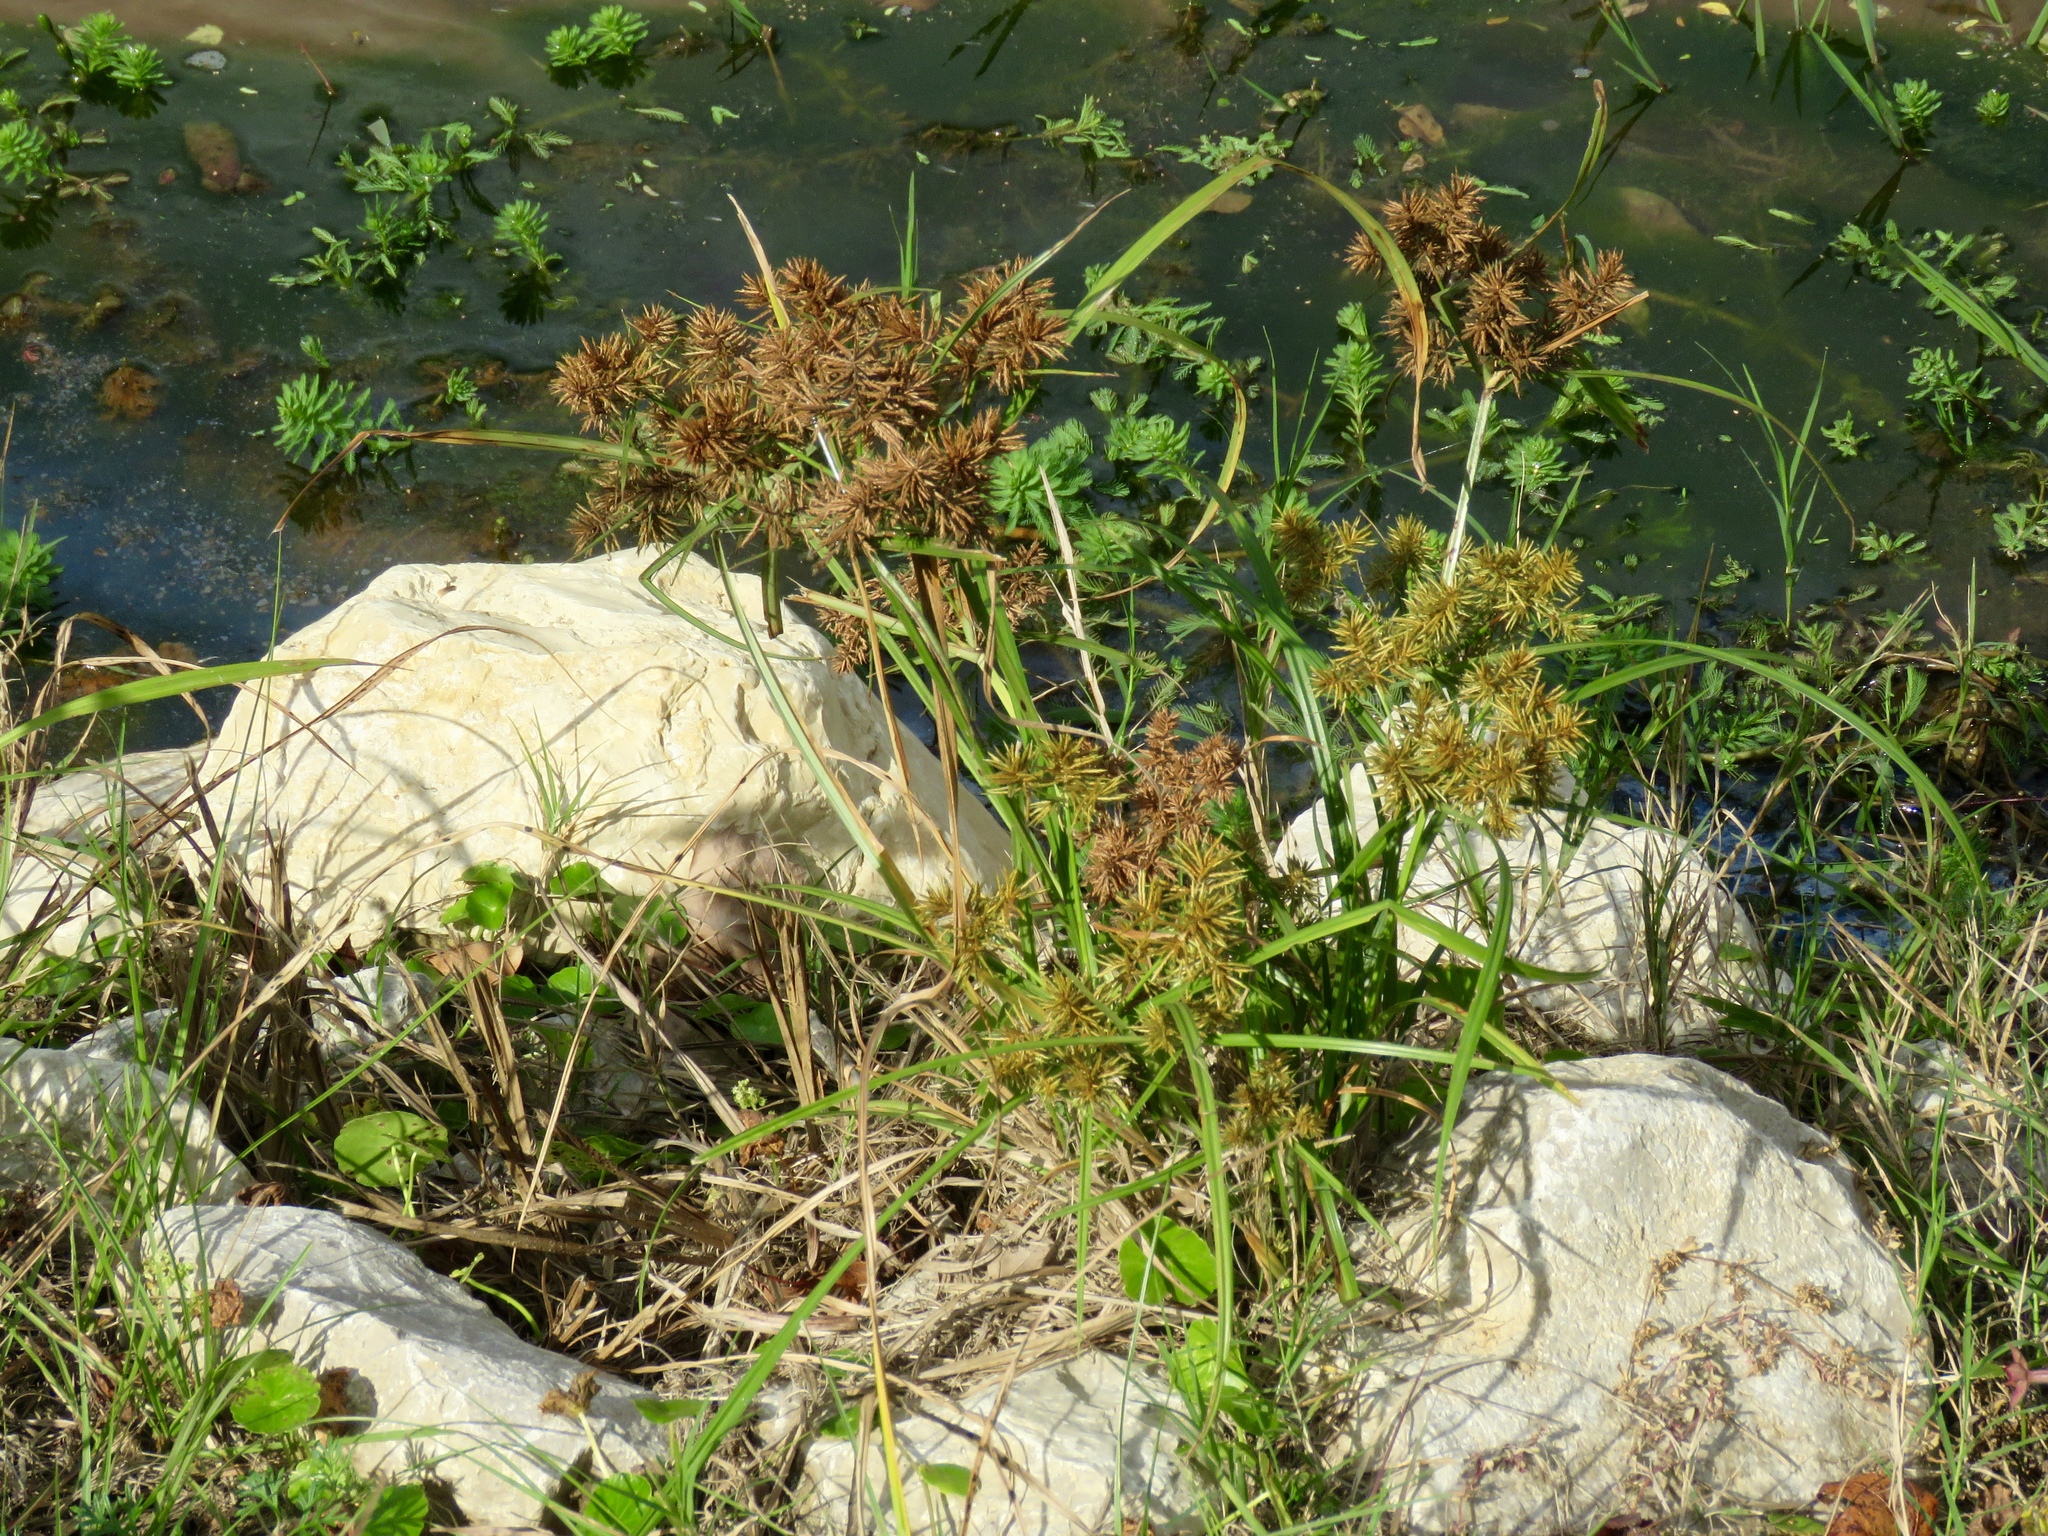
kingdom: Plantae
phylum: Tracheophyta
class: Liliopsida
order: Poales
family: Cyperaceae
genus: Cyperus
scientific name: Cyperus odoratus
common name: Fragrant flatsedge
